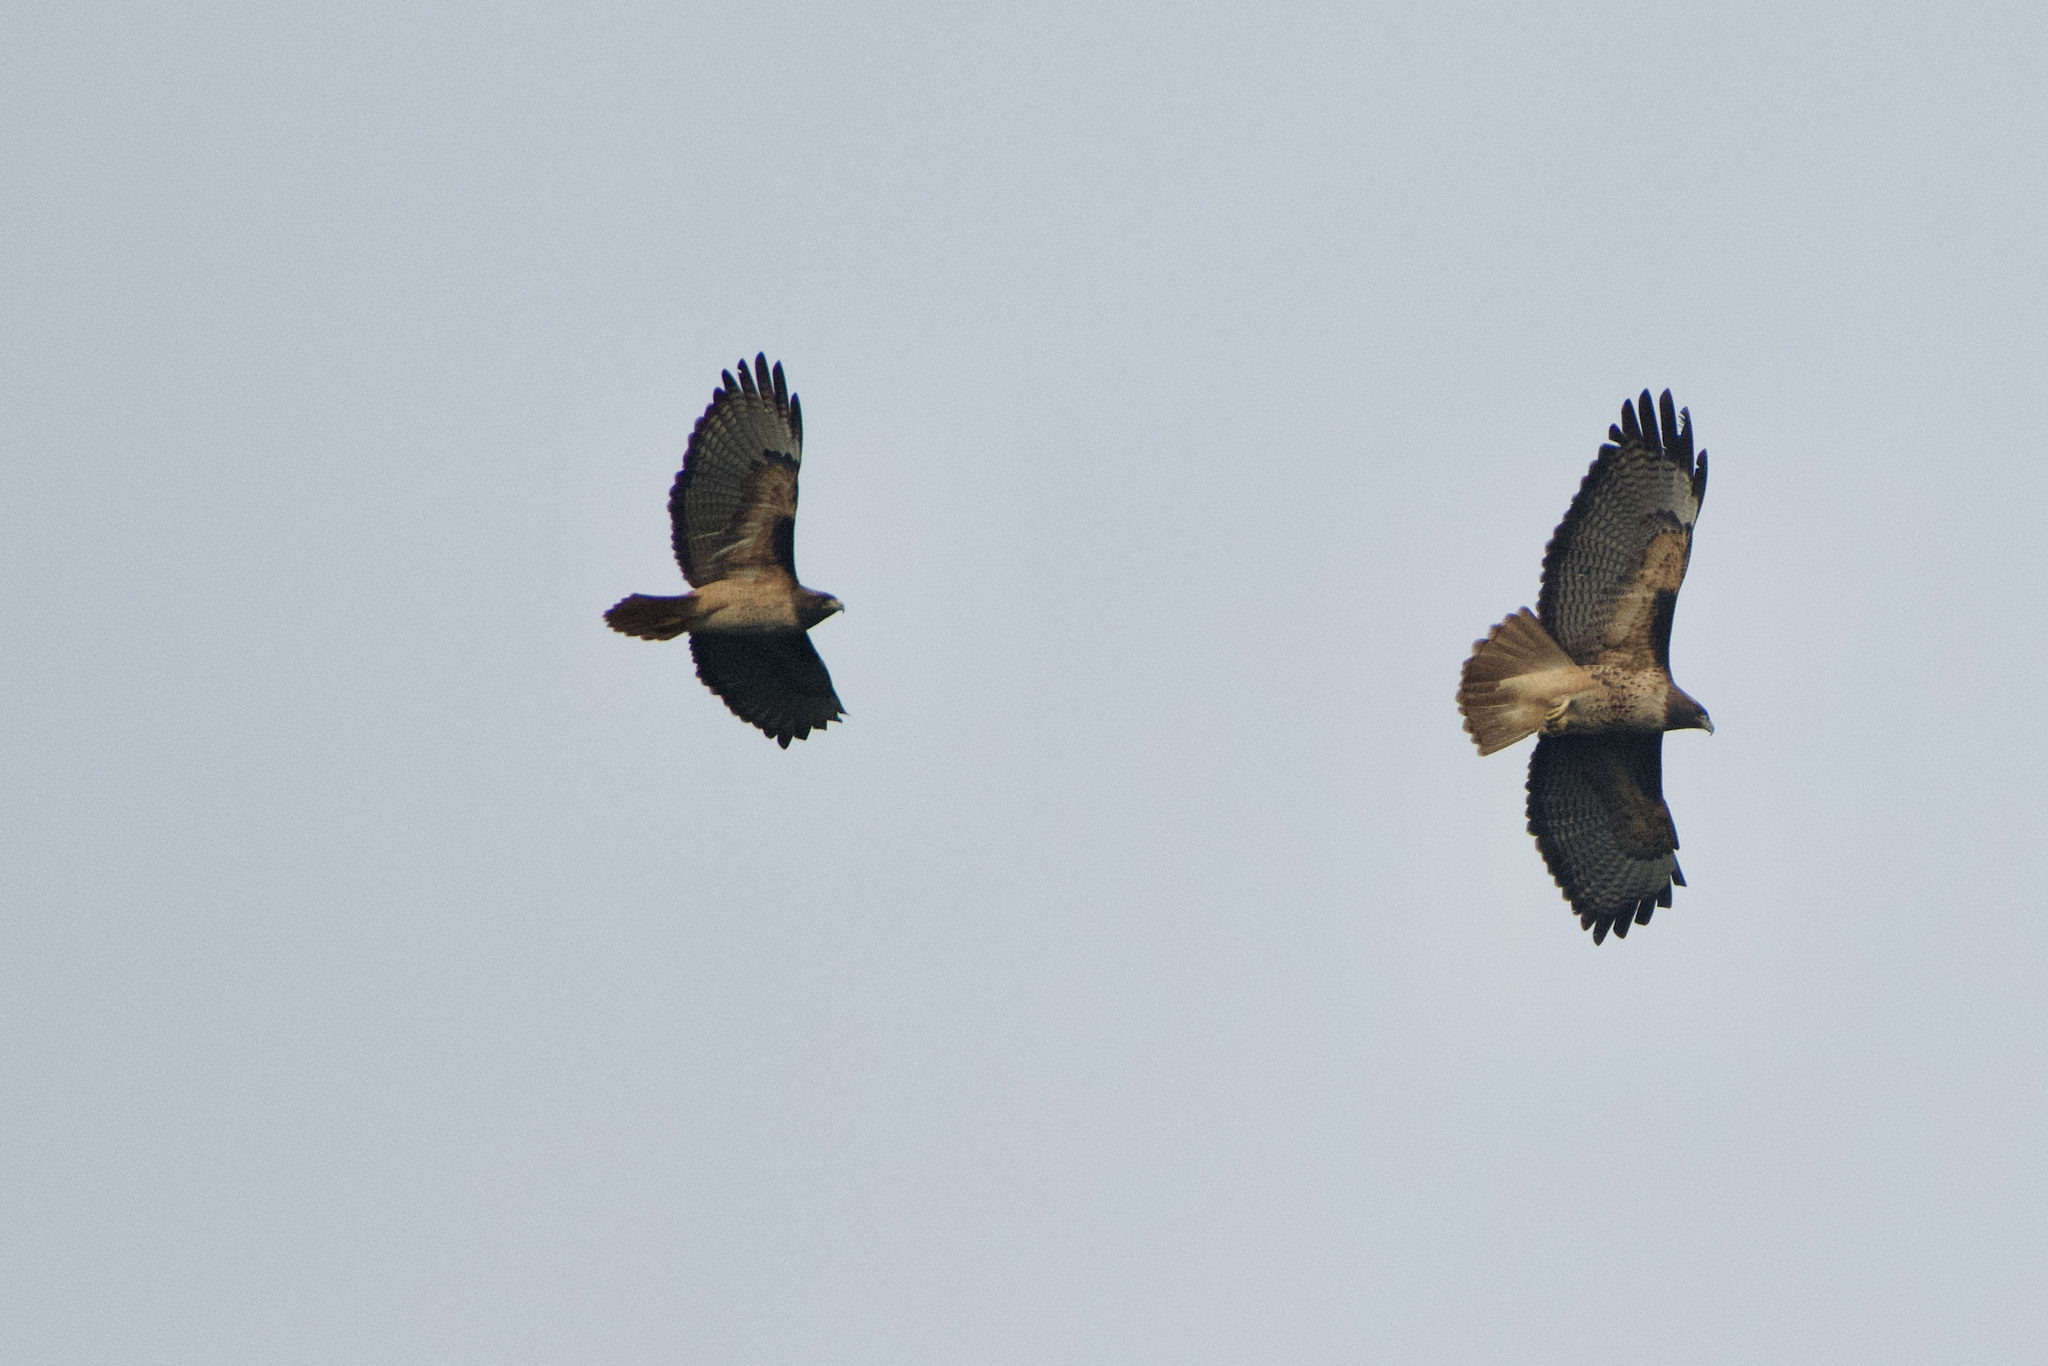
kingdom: Animalia
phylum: Chordata
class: Aves
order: Accipitriformes
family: Accipitridae
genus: Buteo
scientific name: Buteo jamaicensis
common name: Red-tailed hawk
